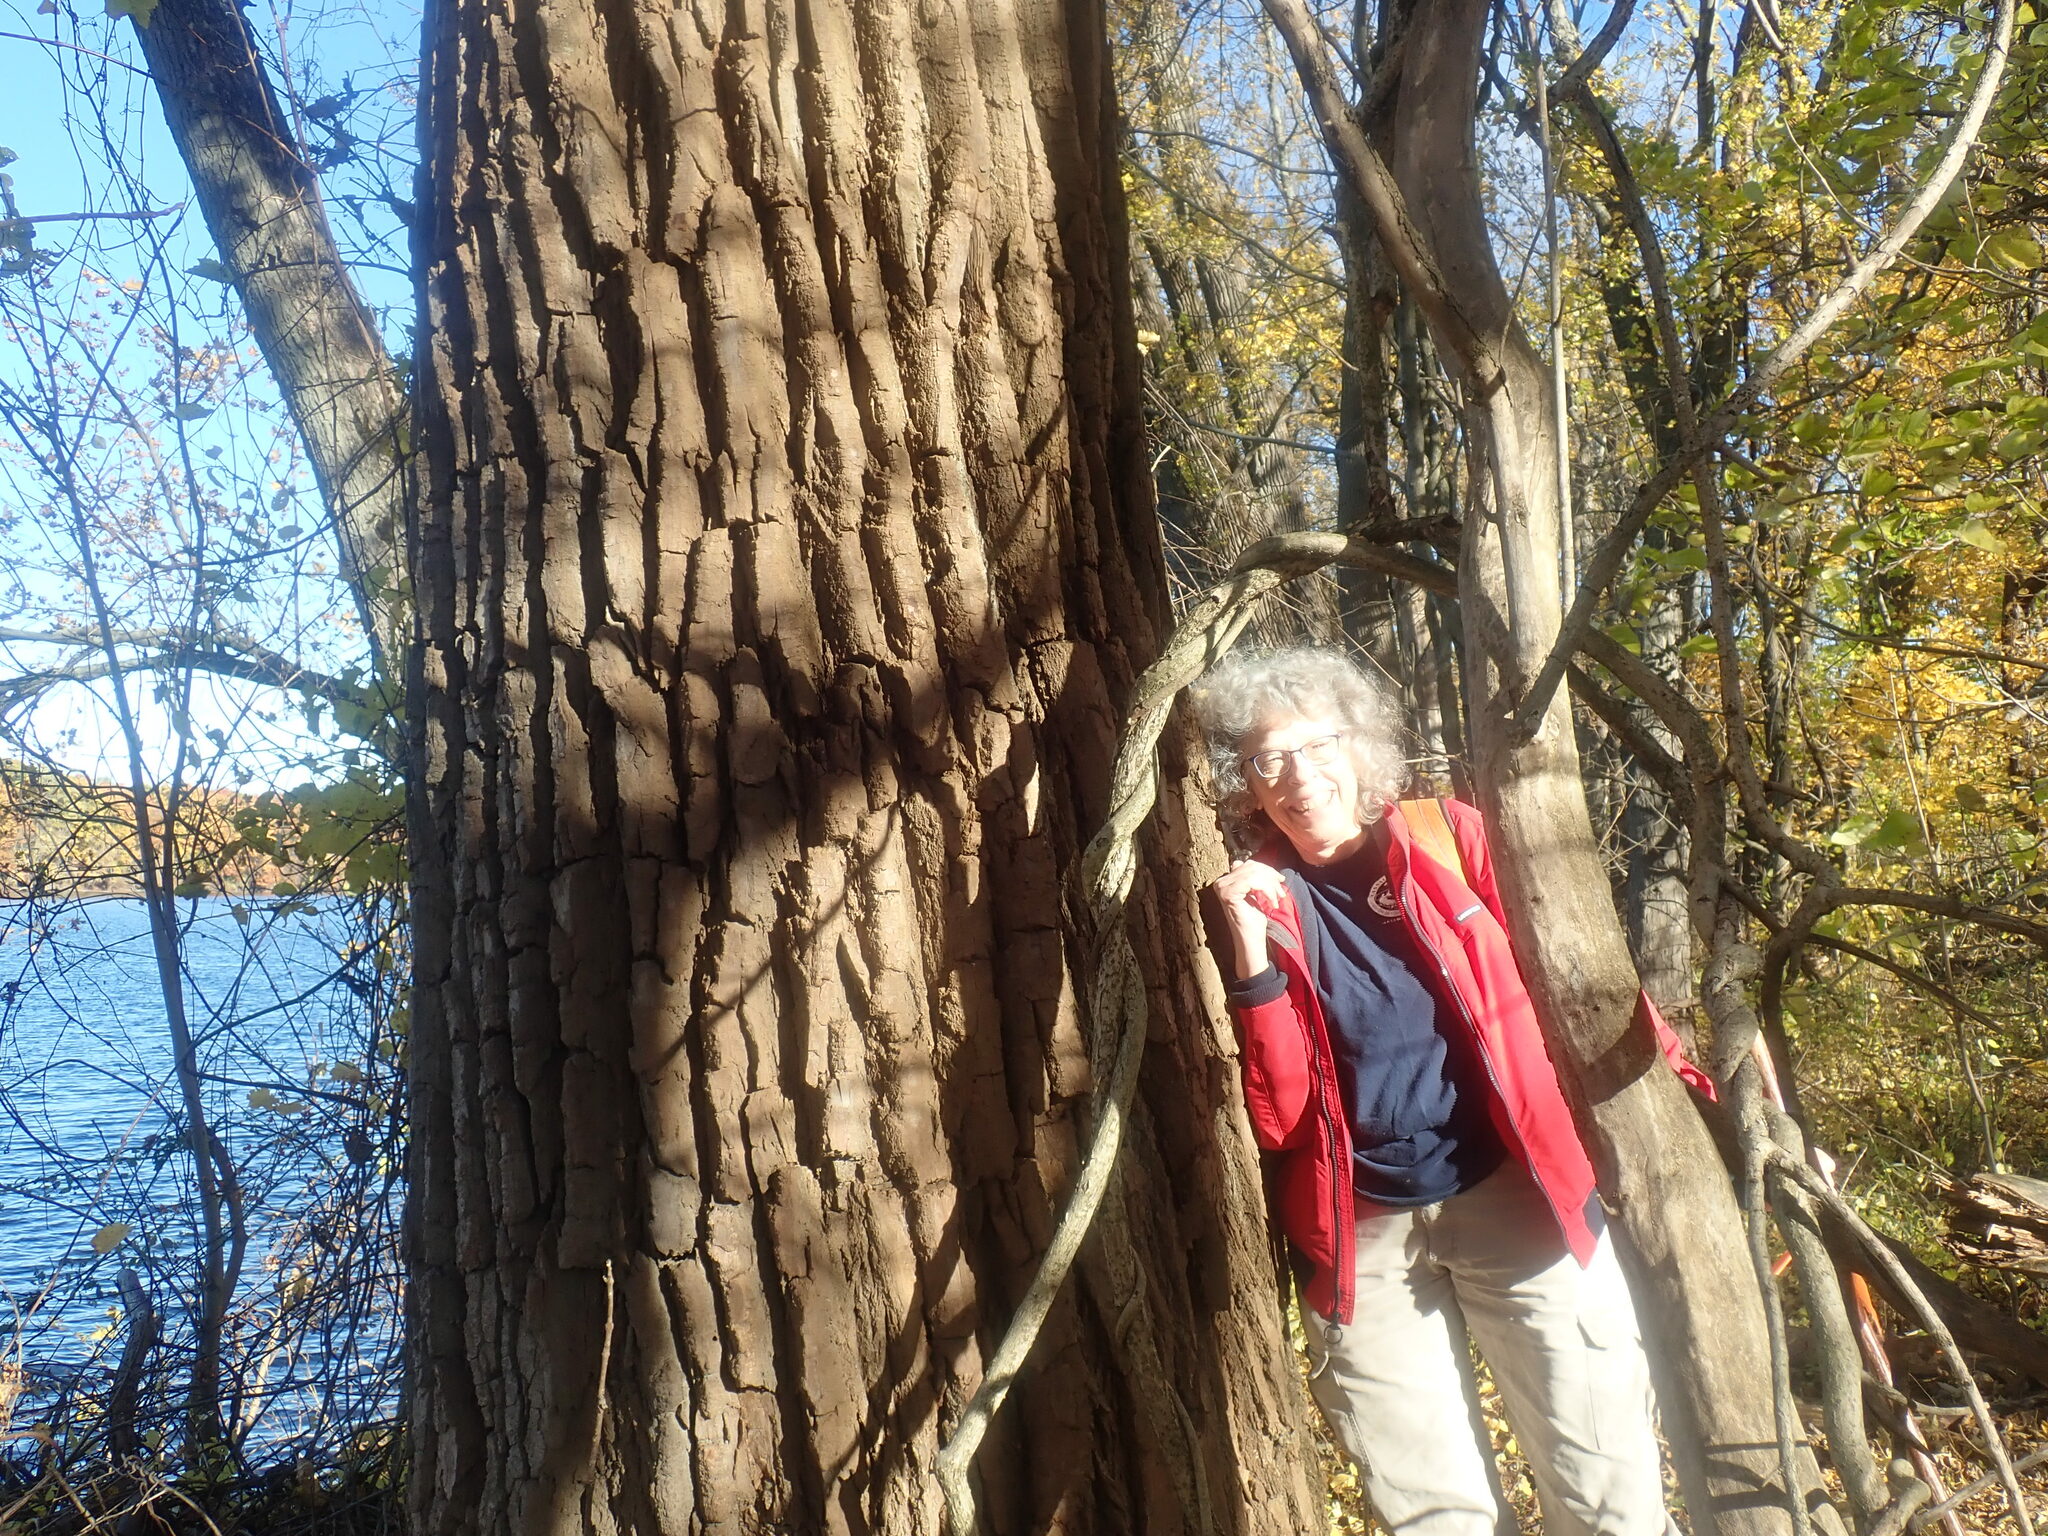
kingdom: Plantae
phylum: Tracheophyta
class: Magnoliopsida
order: Malpighiales
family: Salicaceae
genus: Populus
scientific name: Populus deltoides
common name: Eastern cottonwood
